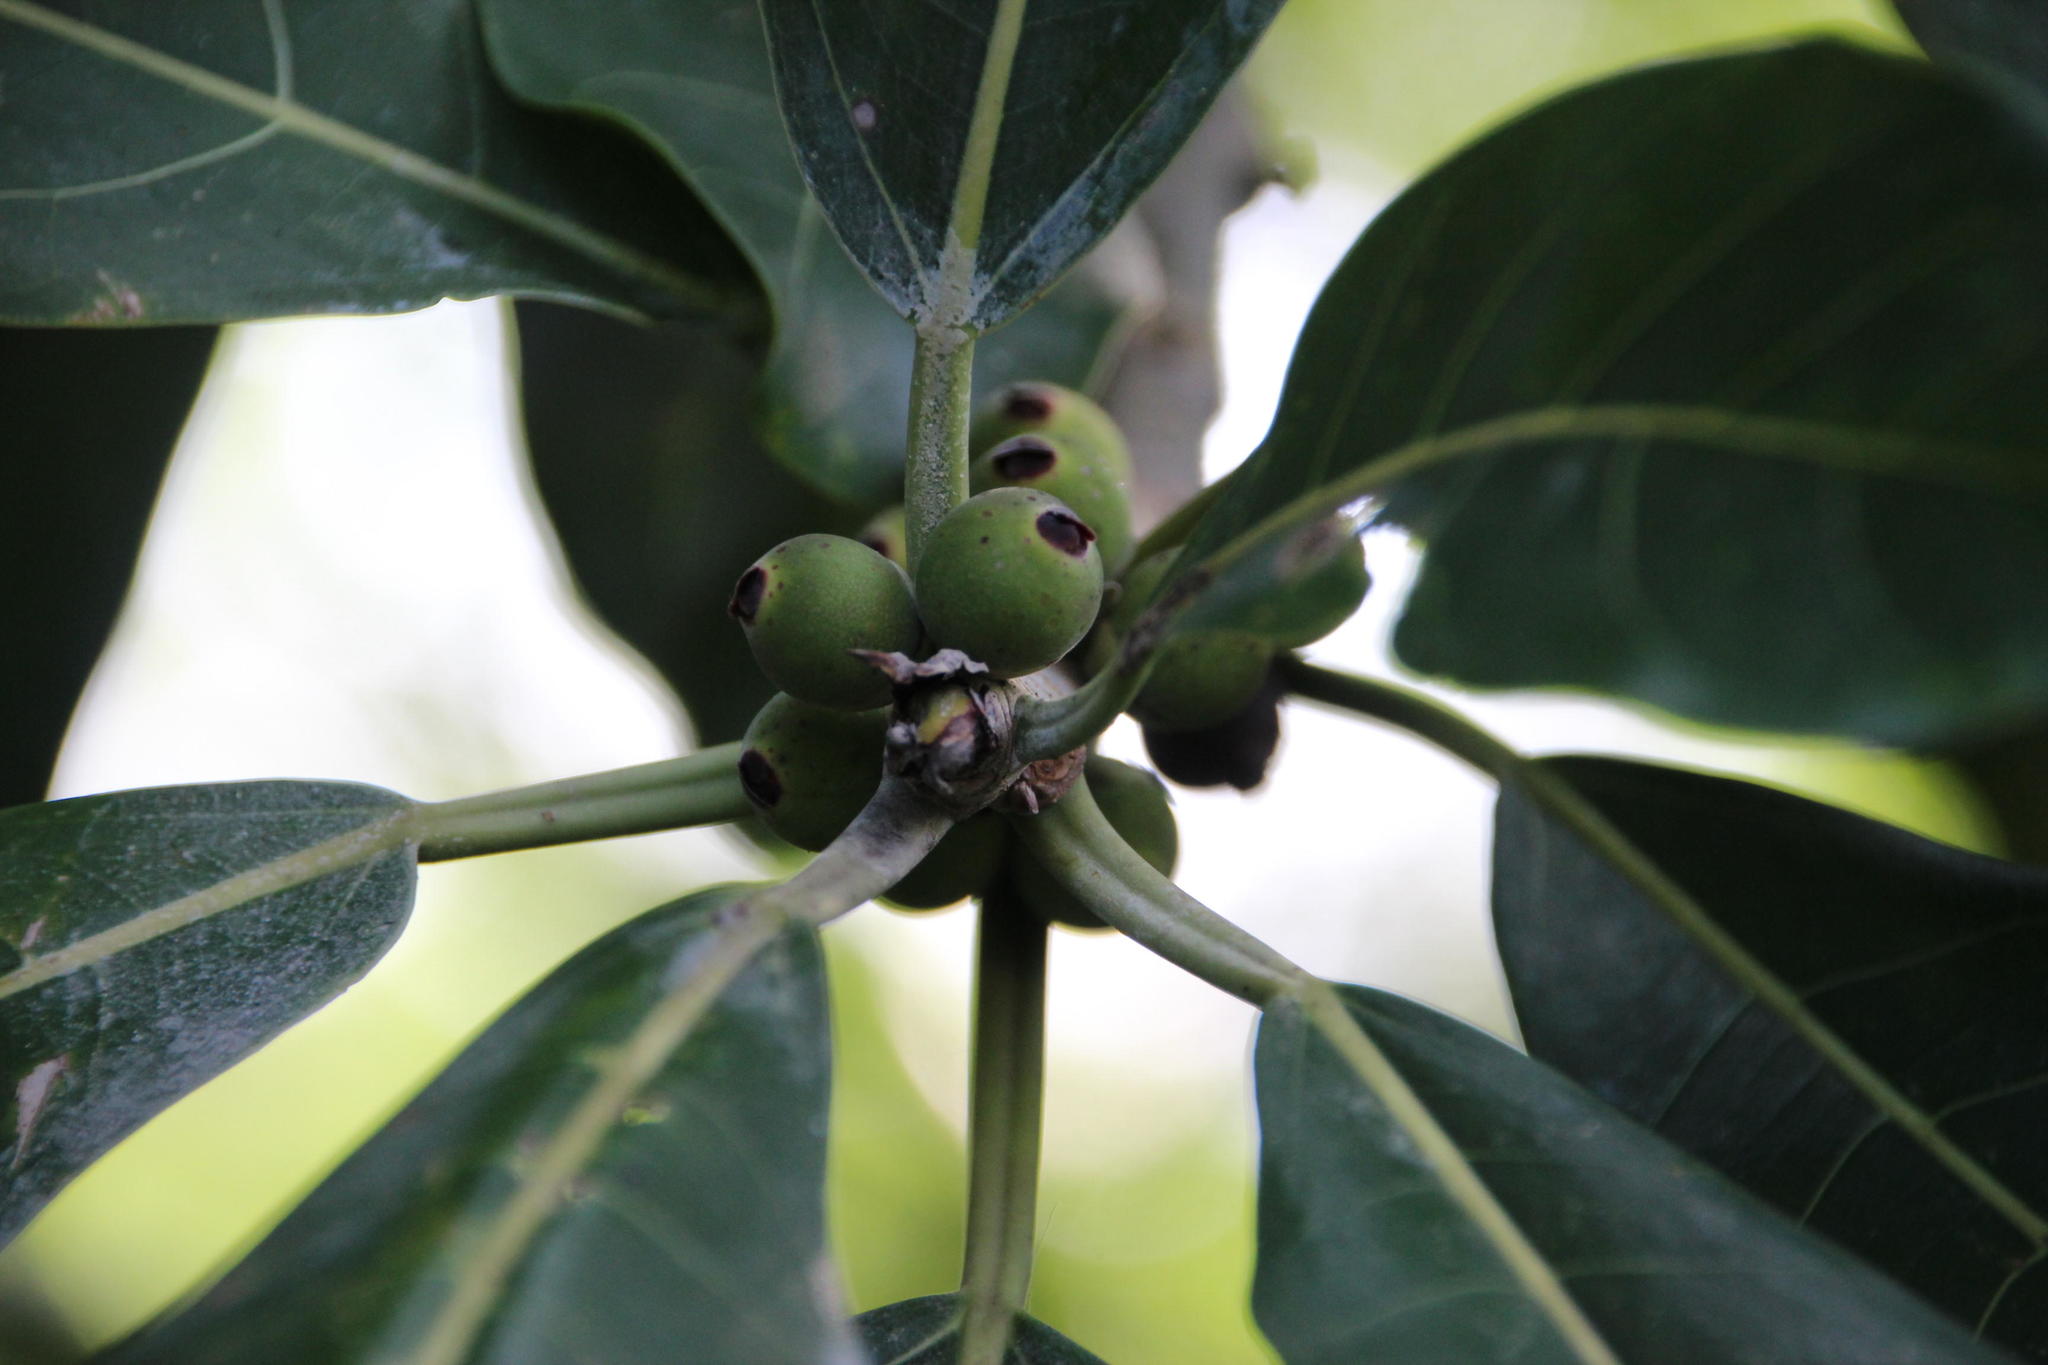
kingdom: Plantae
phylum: Tracheophyta
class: Magnoliopsida
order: Rosales
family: Moraceae
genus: Ficus
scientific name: Ficus obtusifolia
